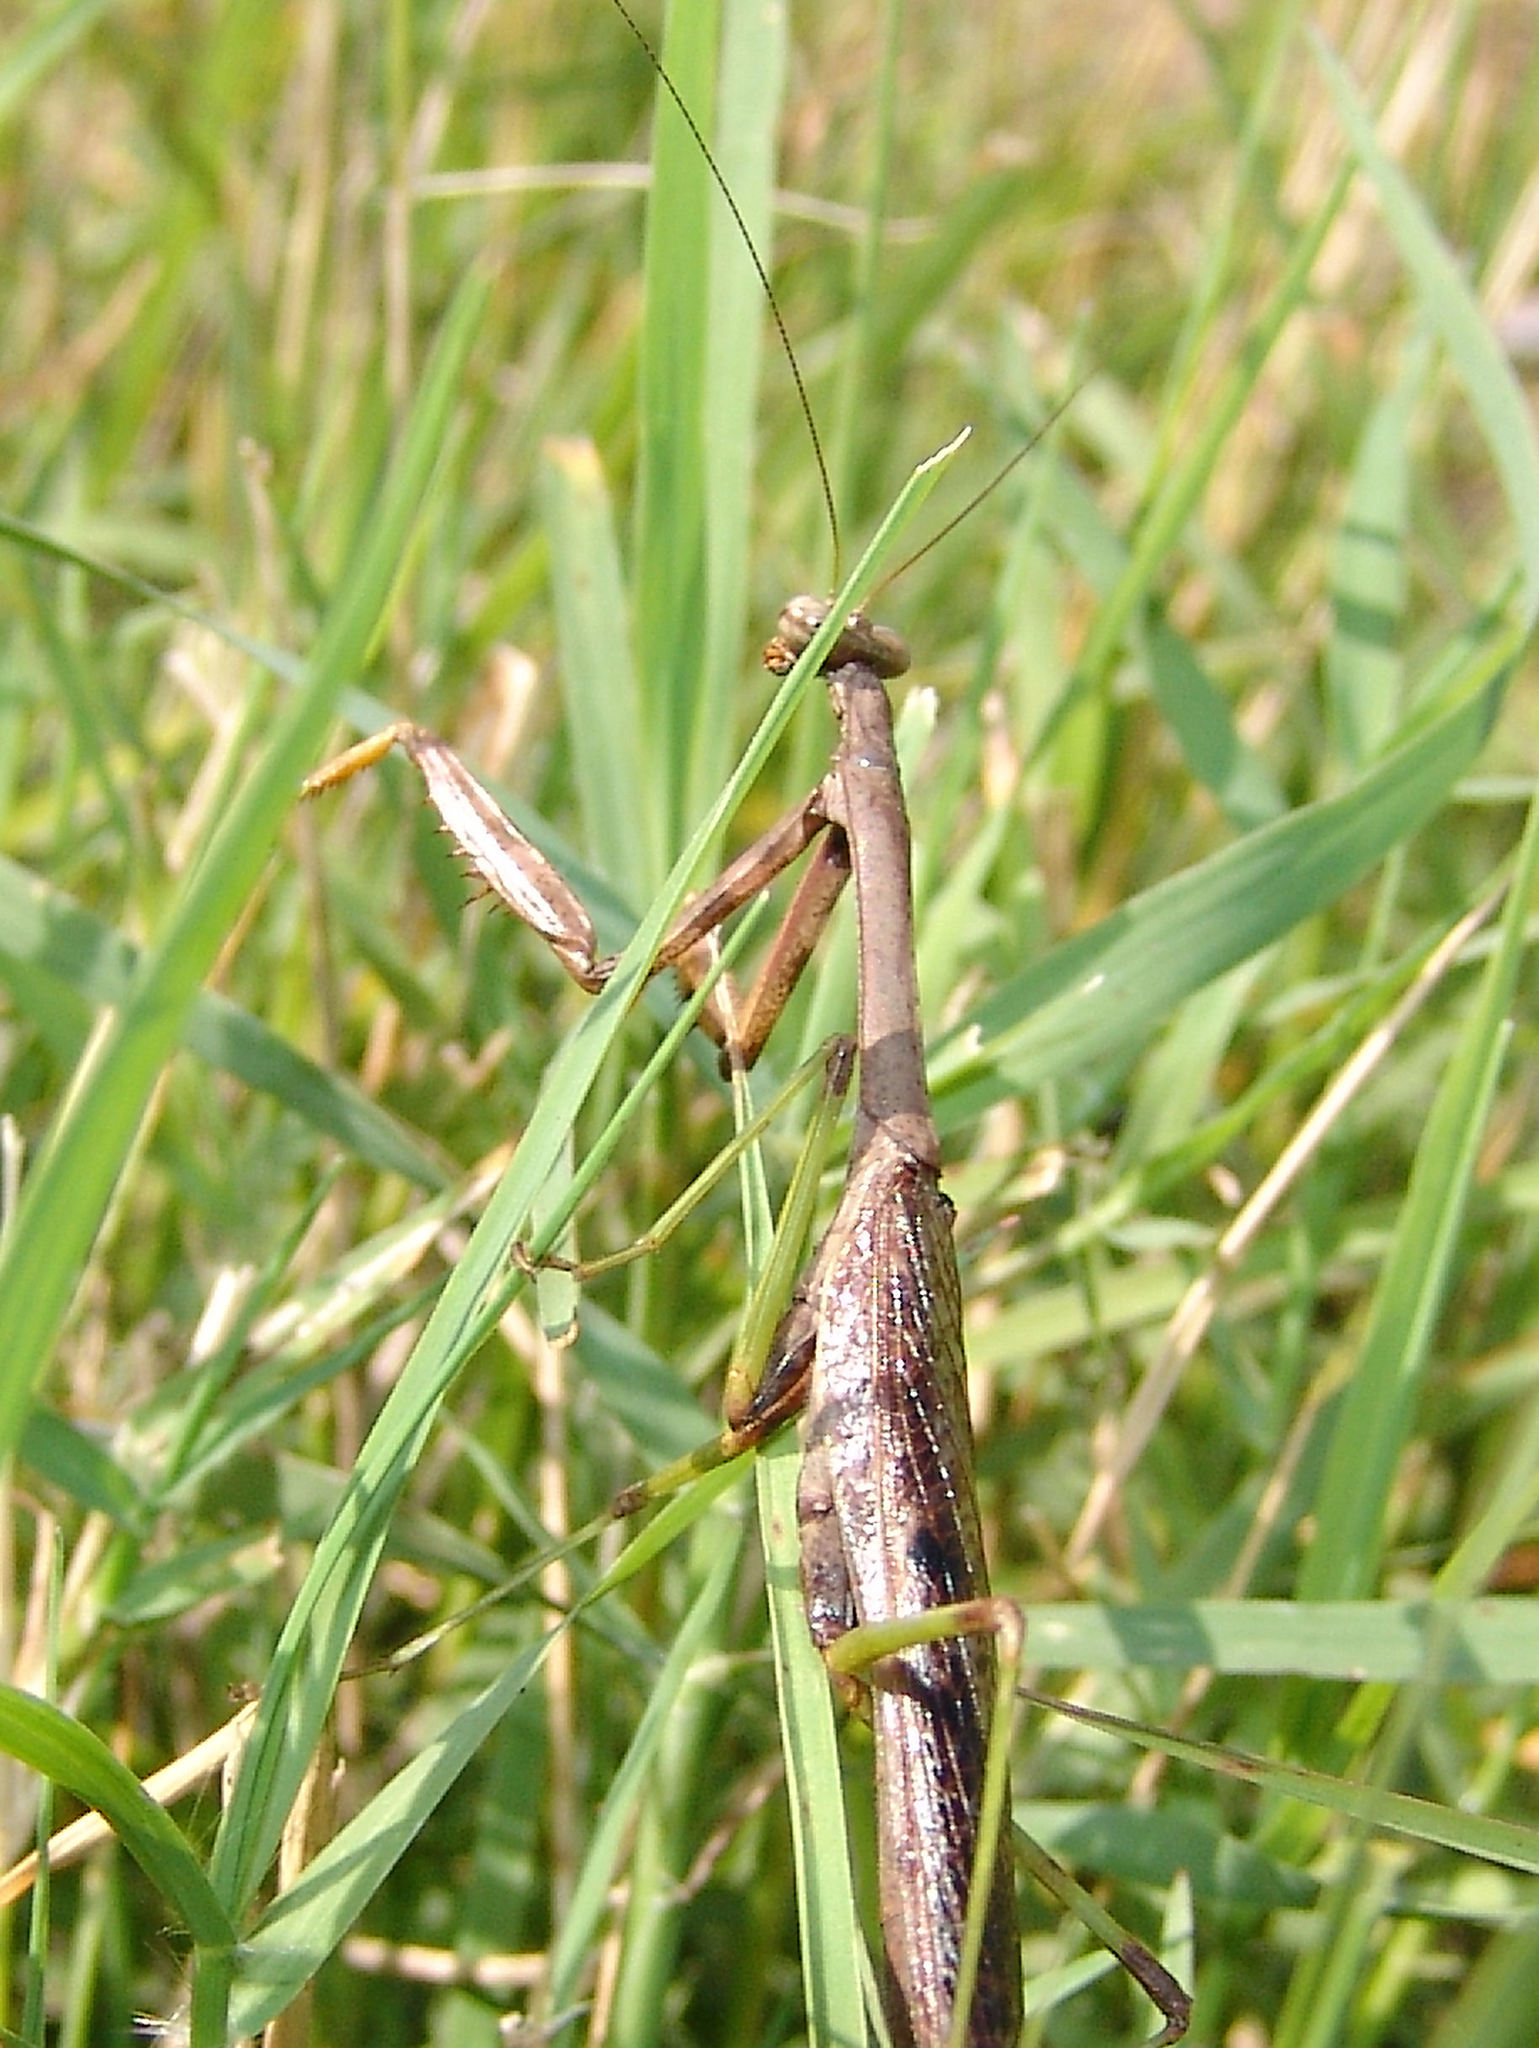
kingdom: Animalia
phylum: Arthropoda
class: Insecta
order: Mantodea
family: Mantidae
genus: Stagmomantis
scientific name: Stagmomantis carolina
